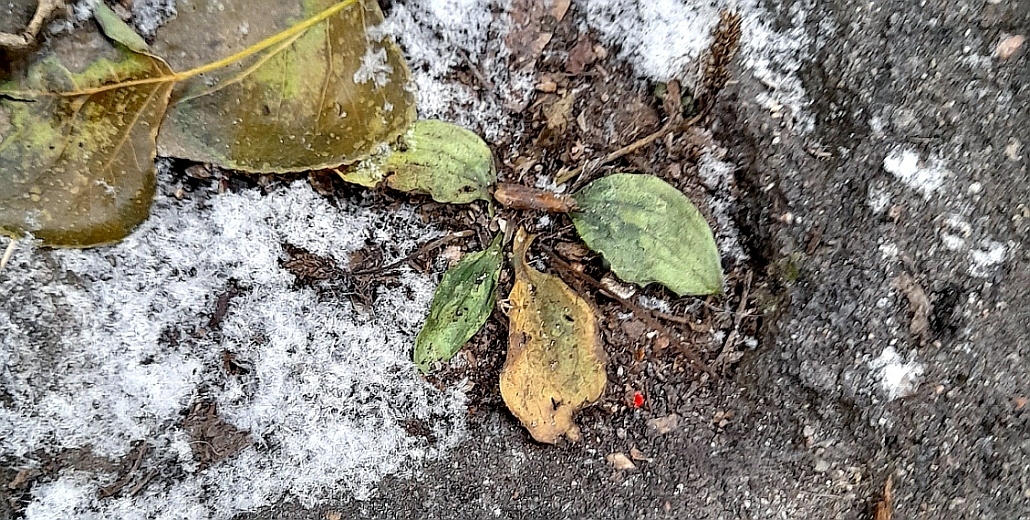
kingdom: Plantae
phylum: Tracheophyta
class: Magnoliopsida
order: Lamiales
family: Plantaginaceae
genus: Plantago
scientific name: Plantago major
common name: Common plantain
